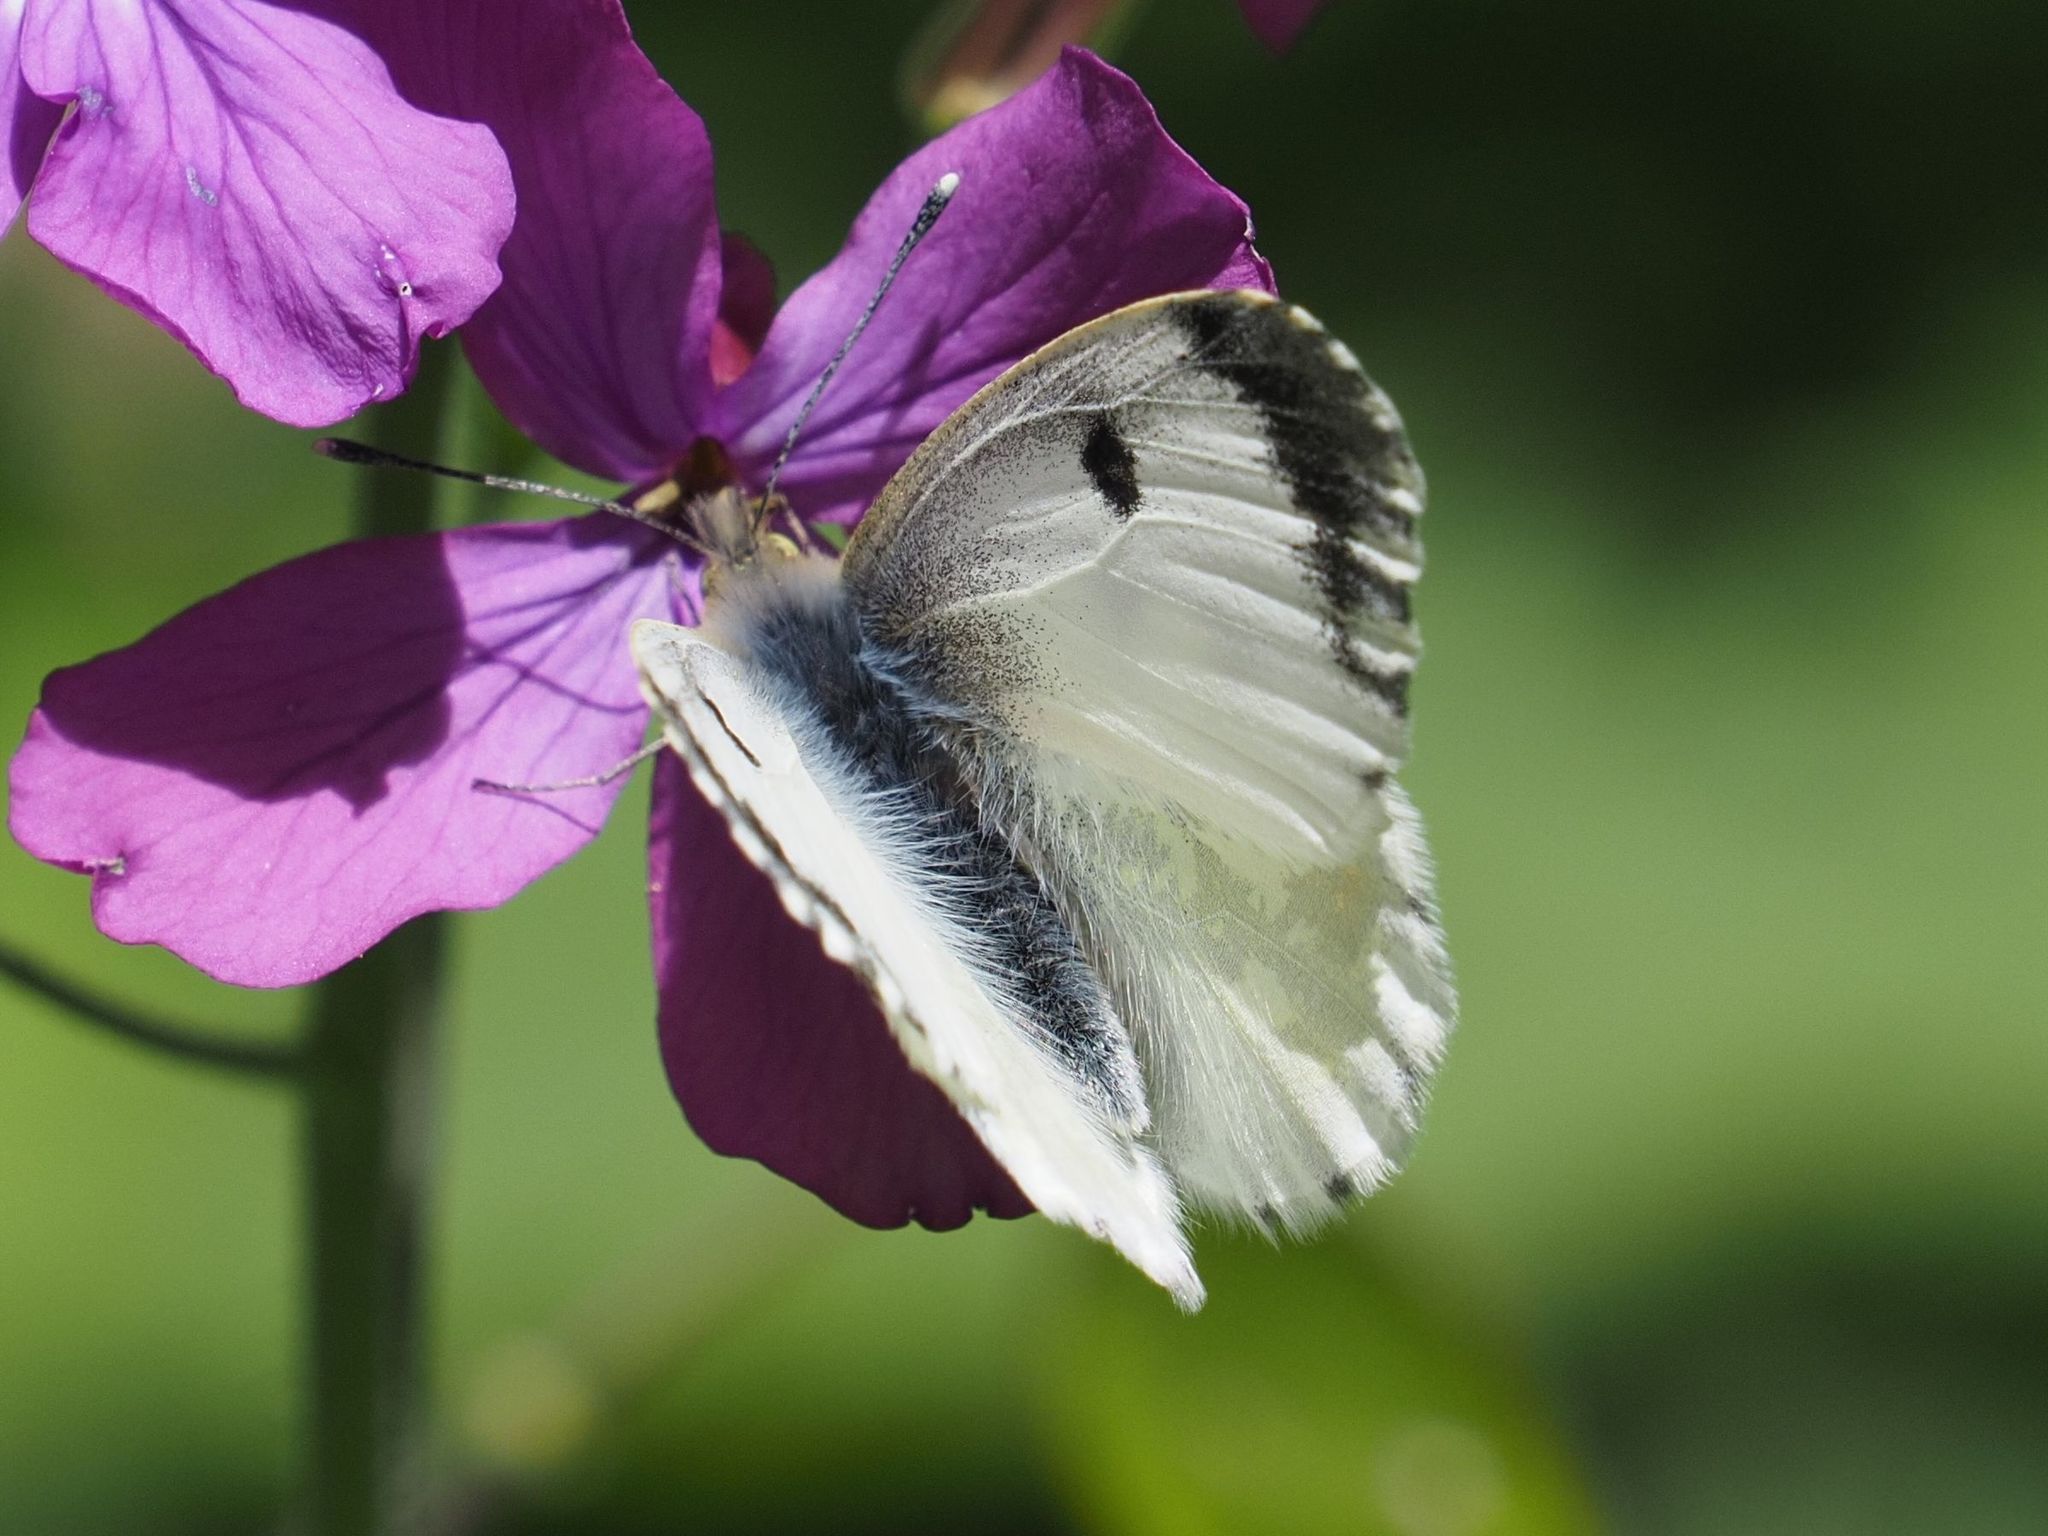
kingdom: Animalia
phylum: Arthropoda
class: Insecta
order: Lepidoptera
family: Pieridae
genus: Anthocharis
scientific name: Anthocharis cardamines
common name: Orange-tip
